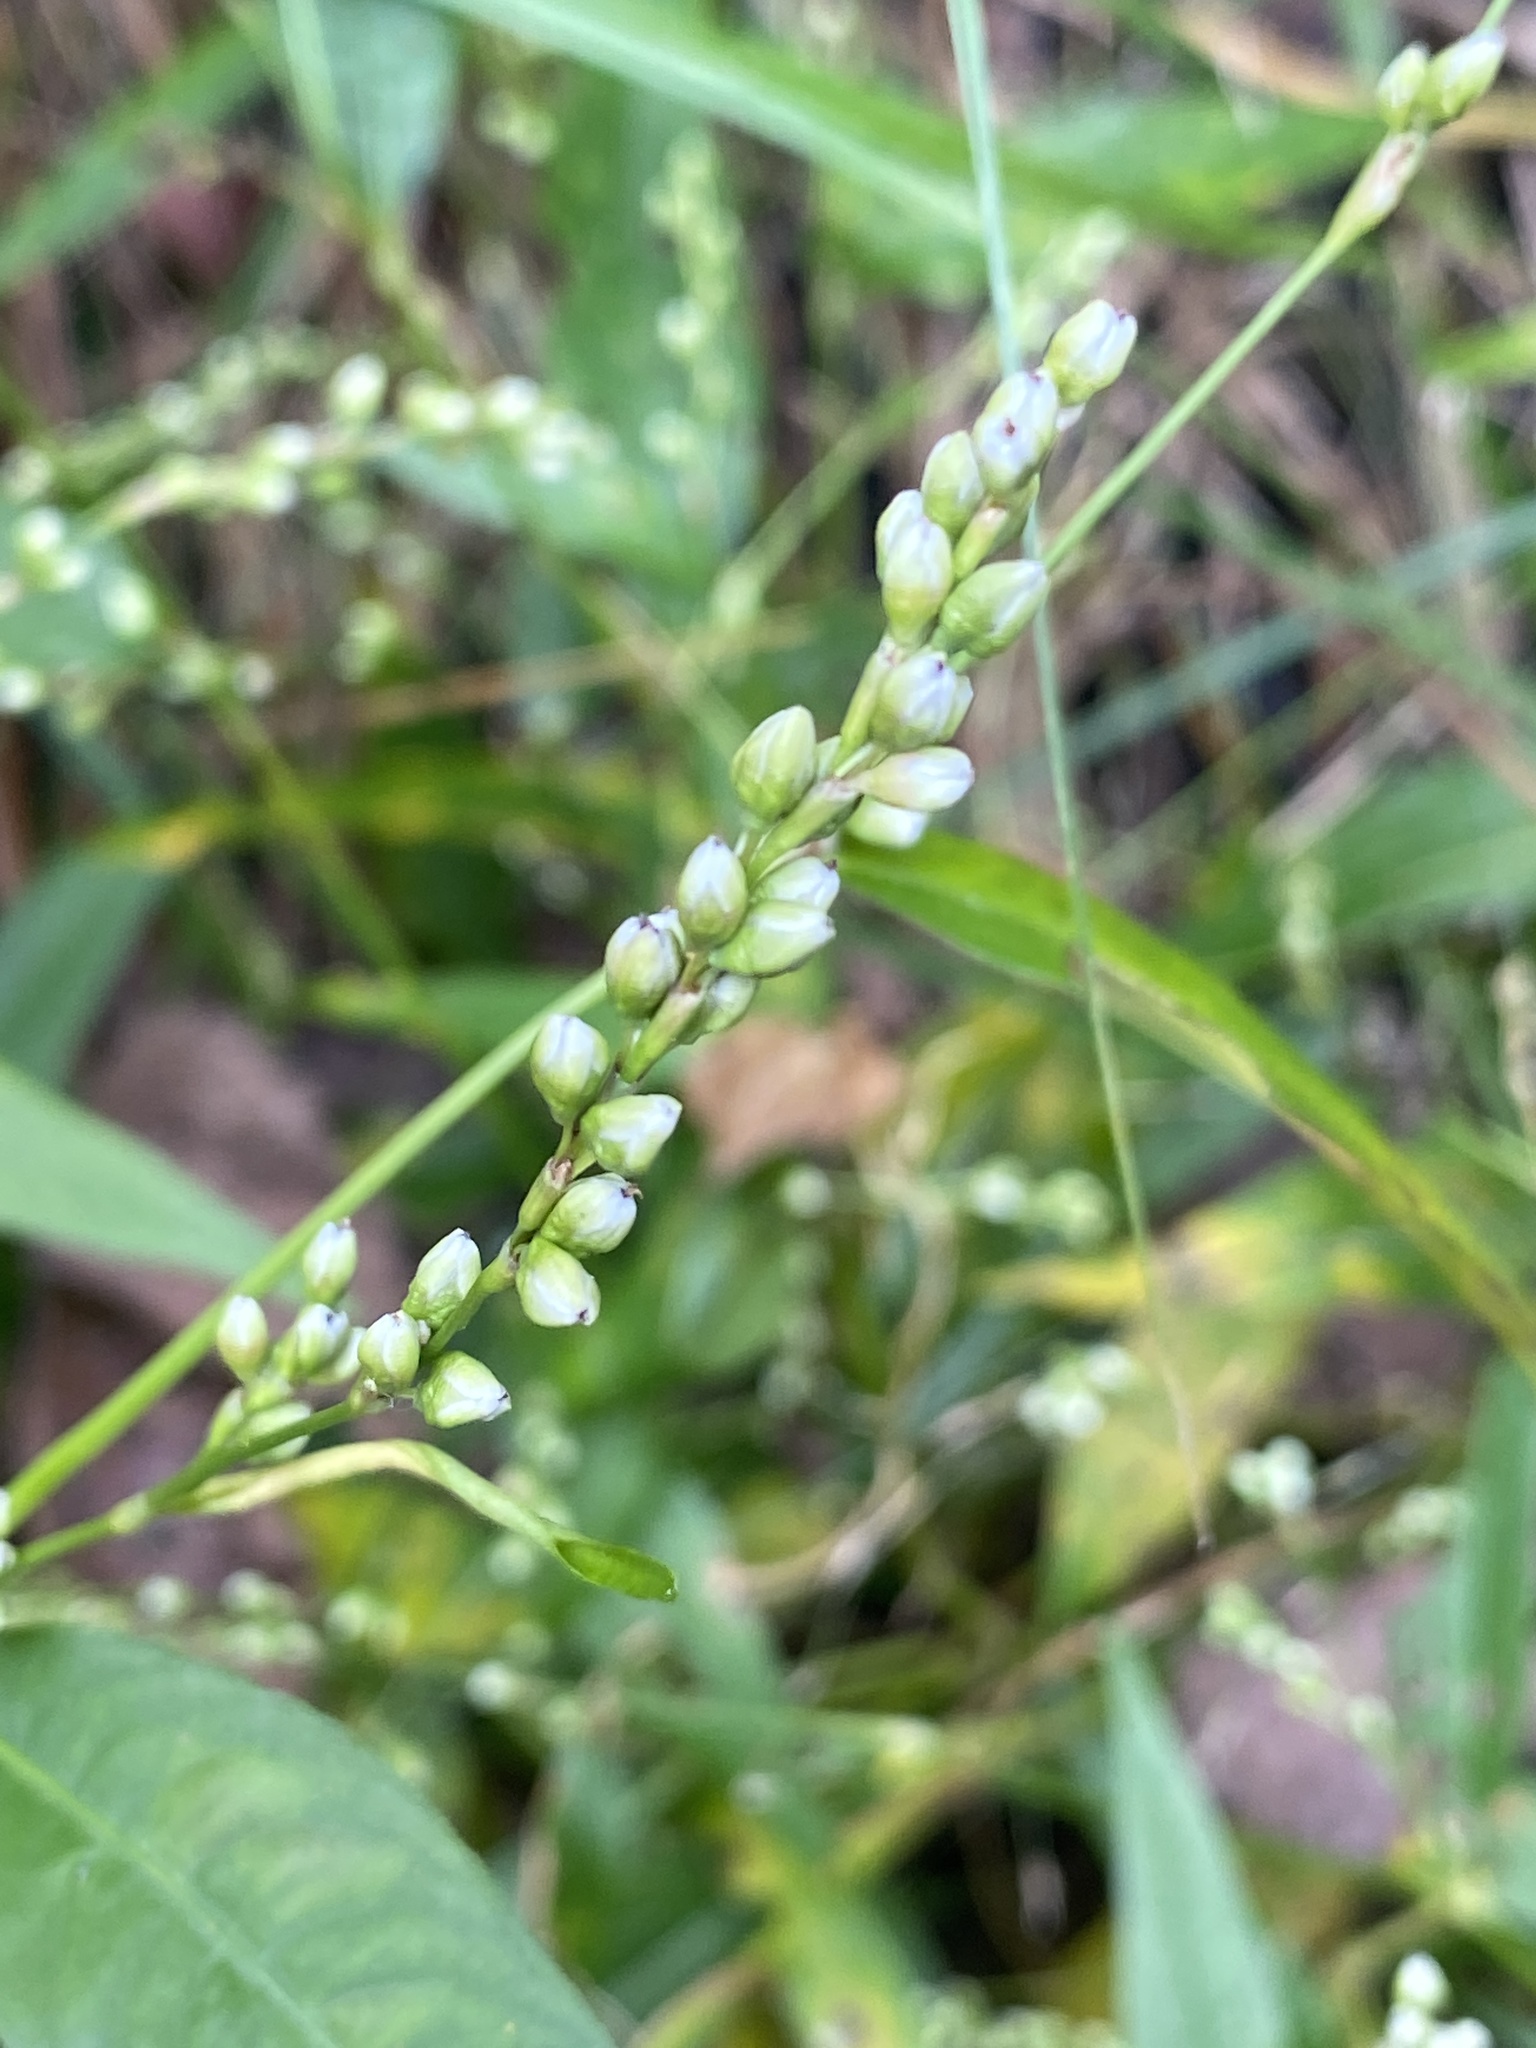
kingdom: Plantae
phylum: Tracheophyta
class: Magnoliopsida
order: Caryophyllales
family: Polygonaceae
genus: Persicaria
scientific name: Persicaria punctata
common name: Dotted smartweed
